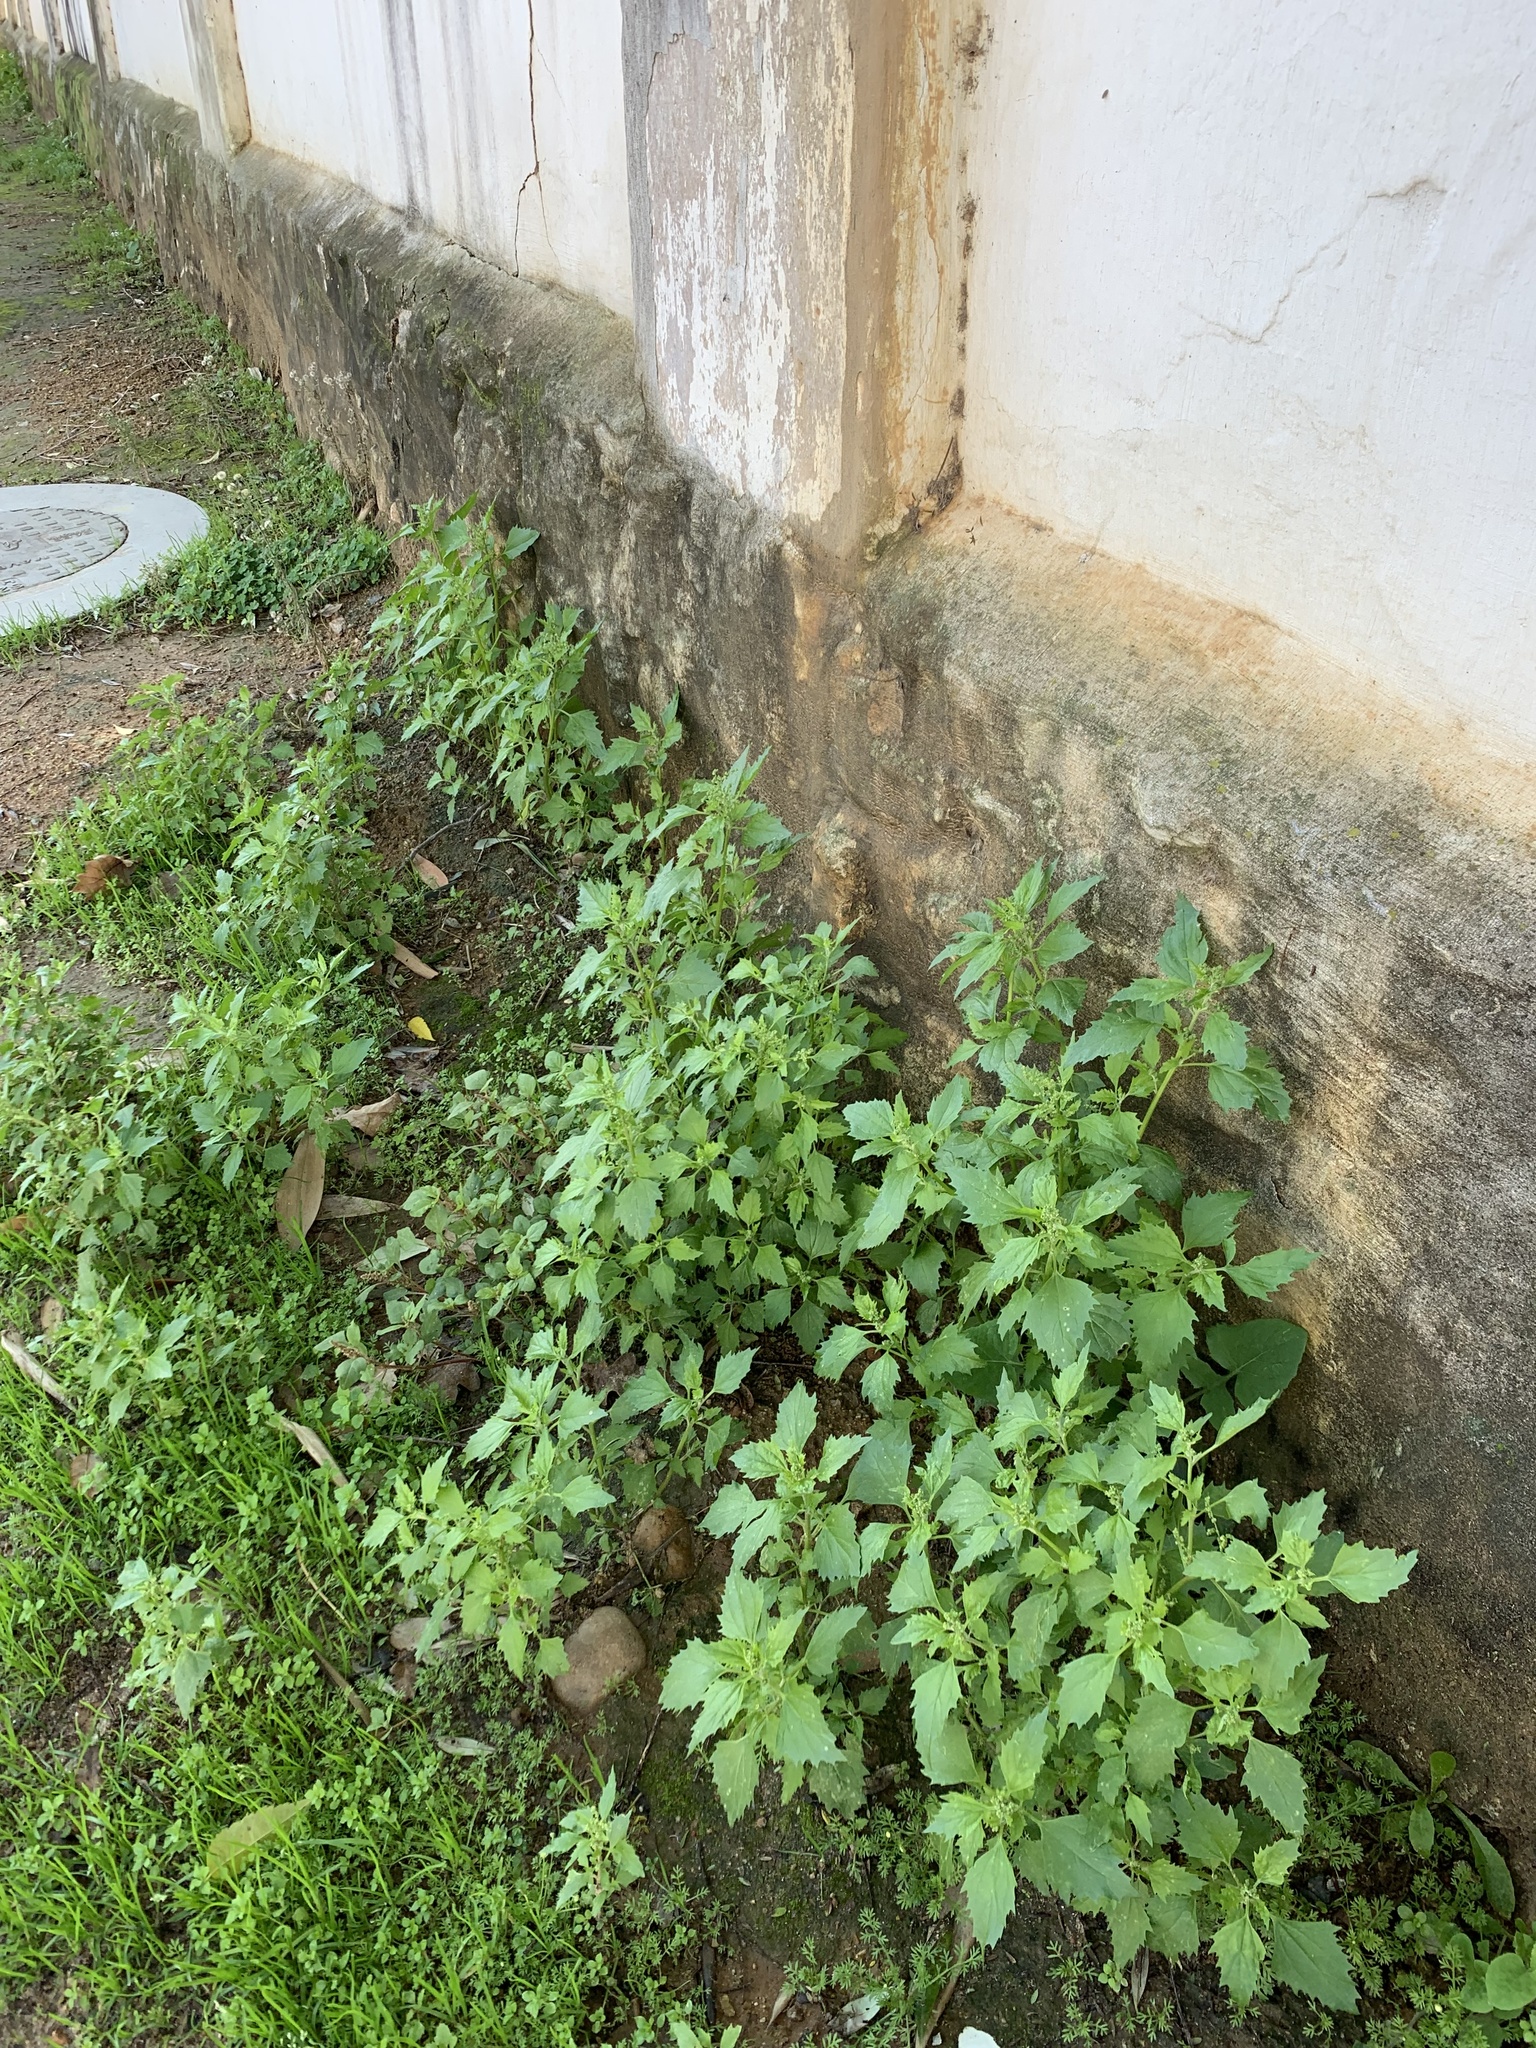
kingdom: Plantae
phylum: Tracheophyta
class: Magnoliopsida
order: Caryophyllales
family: Amaranthaceae
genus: Chenopodiastrum
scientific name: Chenopodiastrum murale
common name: Sowbane
